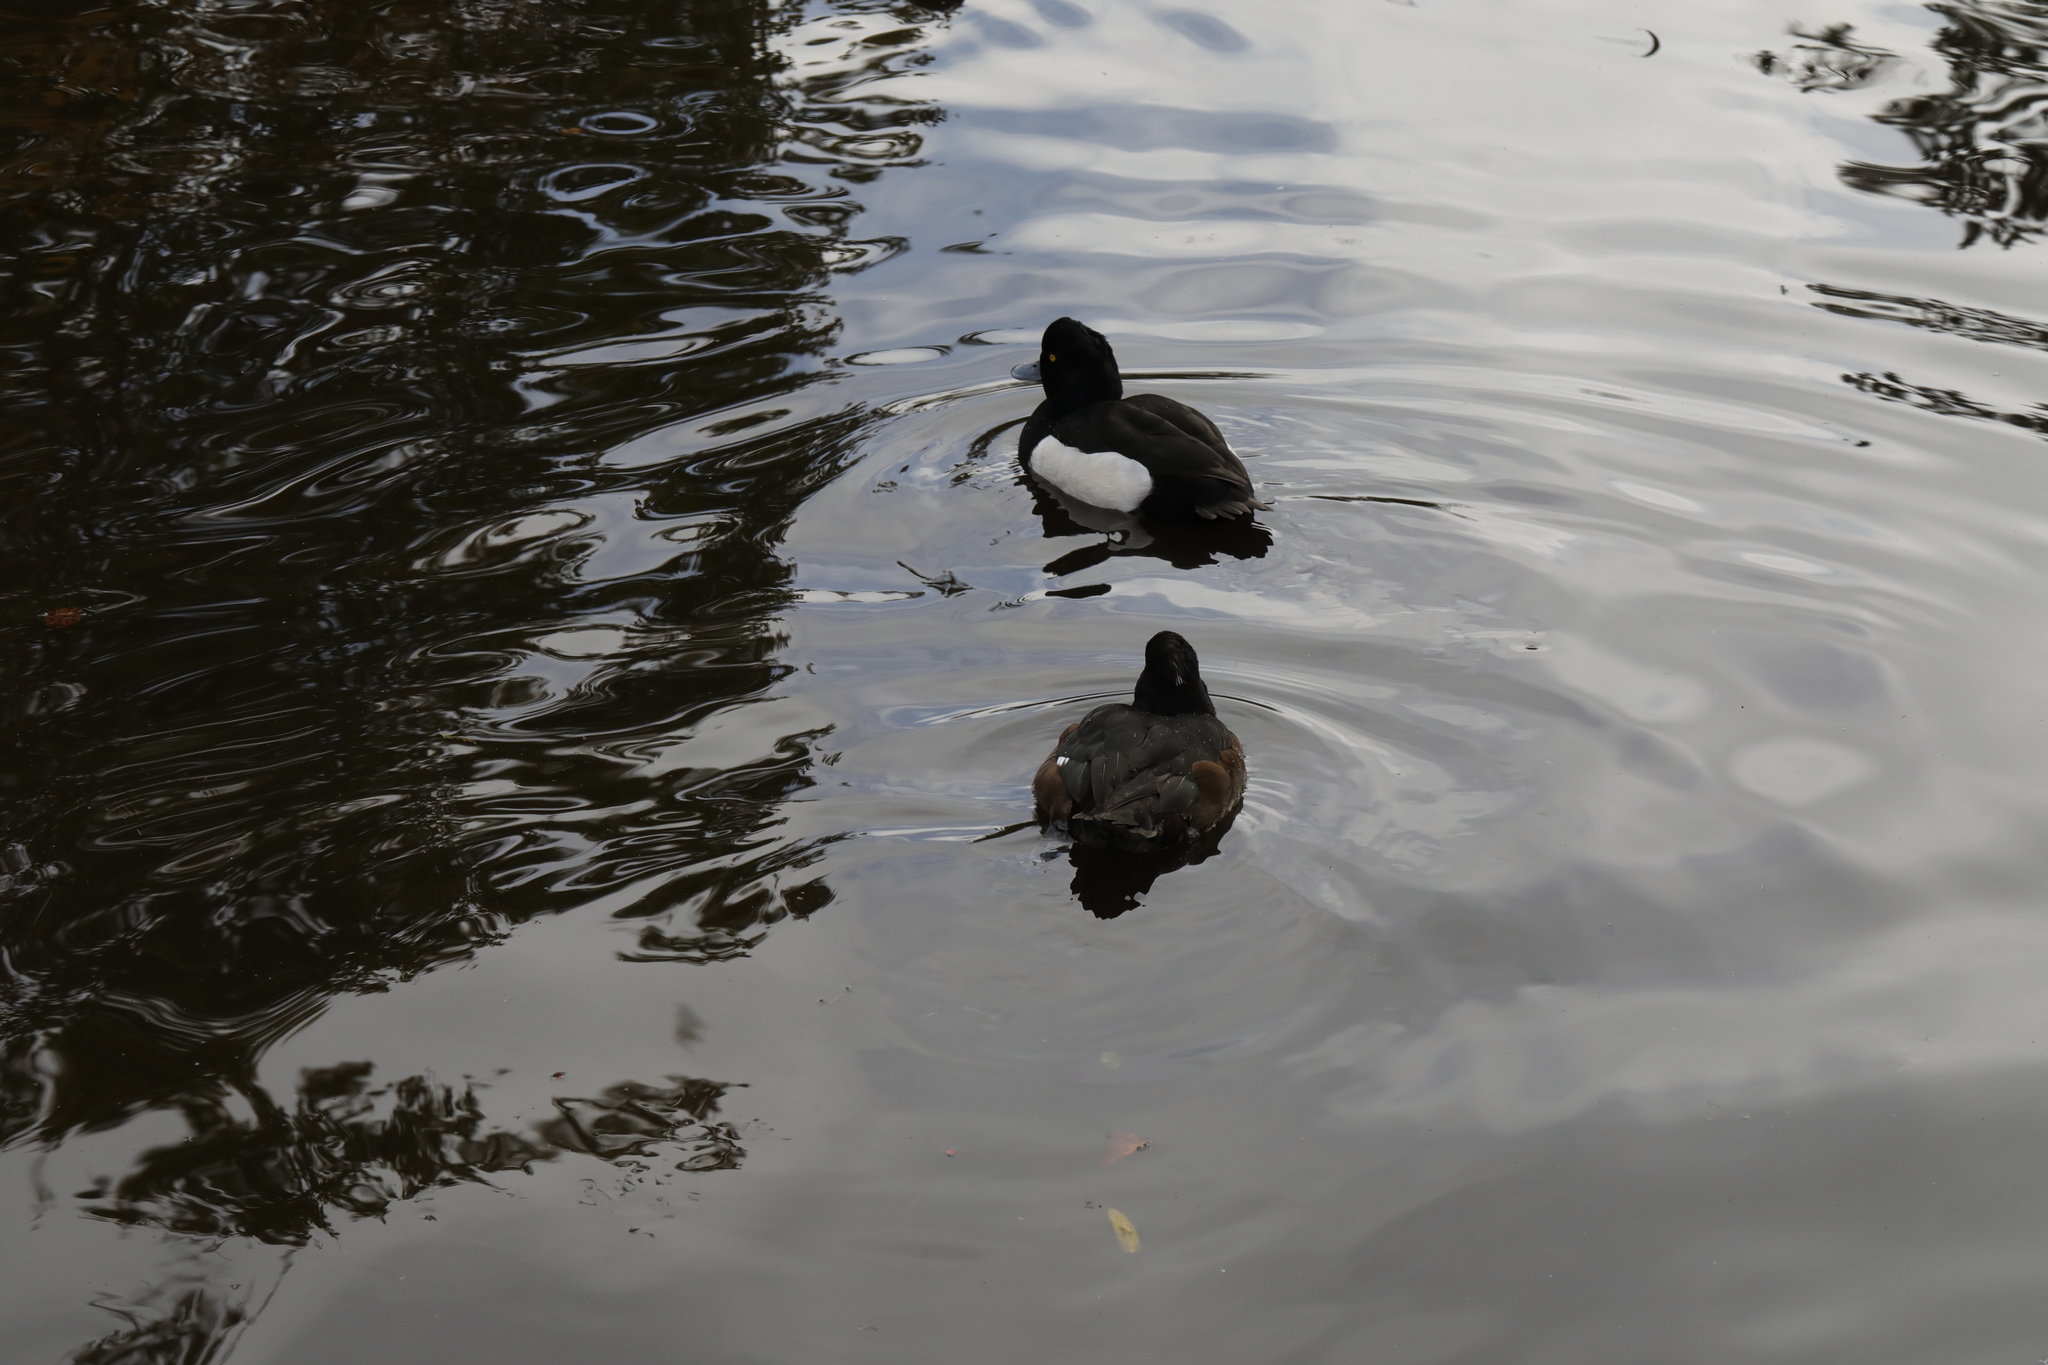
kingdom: Animalia
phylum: Chordata
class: Aves
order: Anseriformes
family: Anatidae
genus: Aythya
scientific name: Aythya fuligula
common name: Tufted duck
